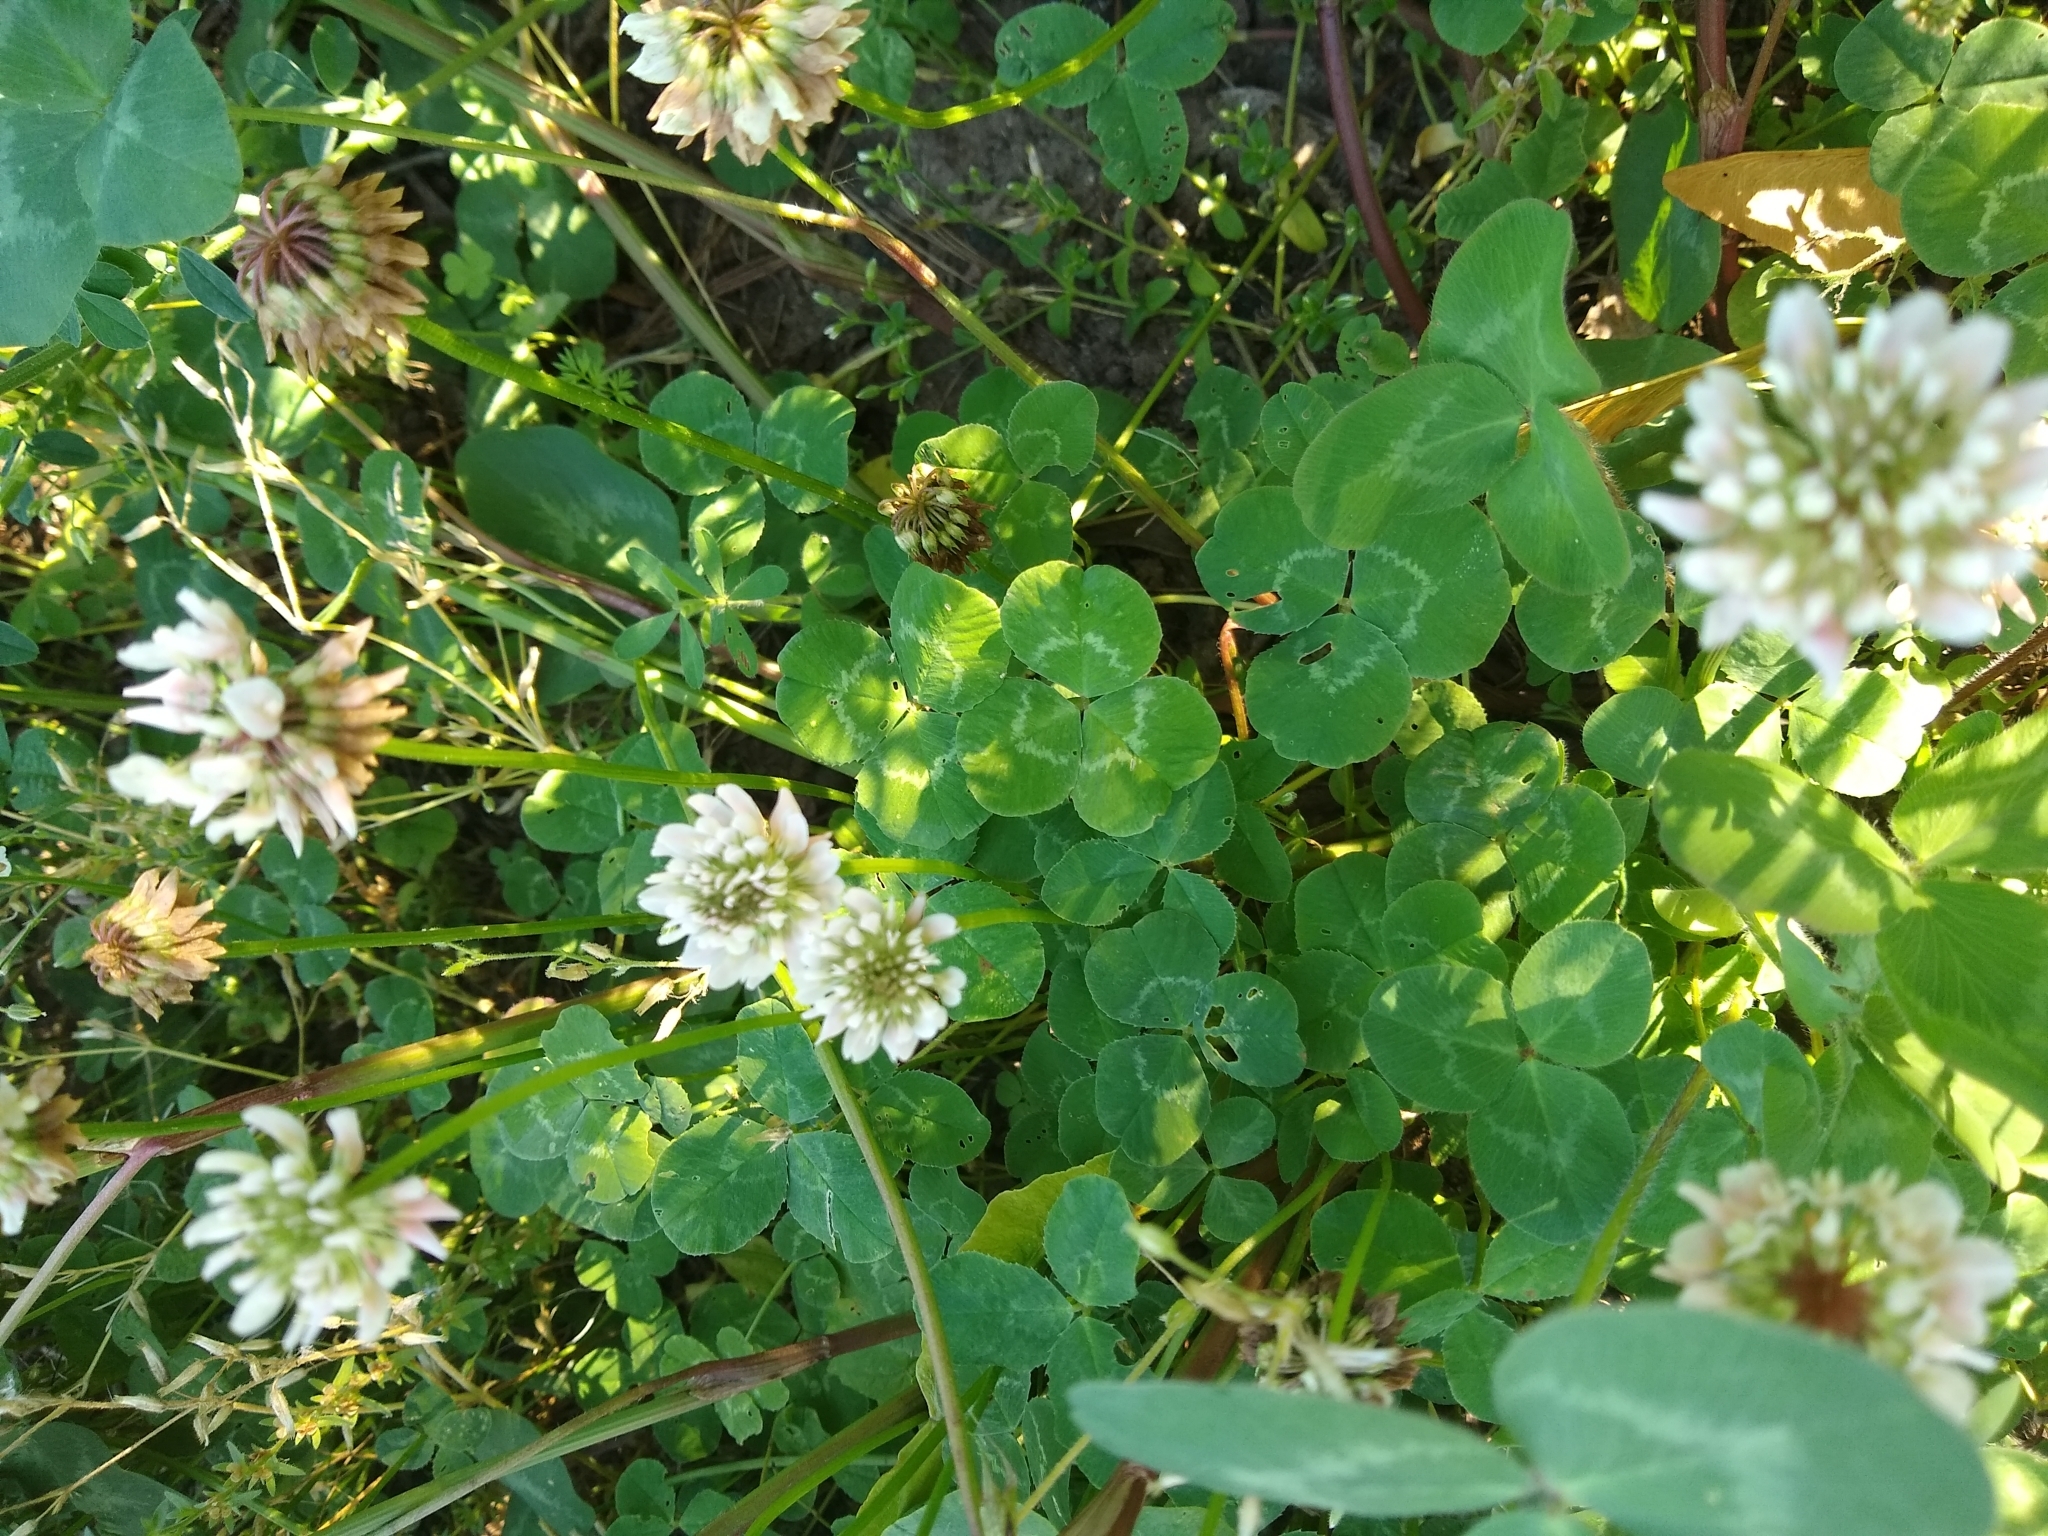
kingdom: Plantae
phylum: Tracheophyta
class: Magnoliopsida
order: Fabales
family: Fabaceae
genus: Trifolium
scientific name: Trifolium repens
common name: White clover
